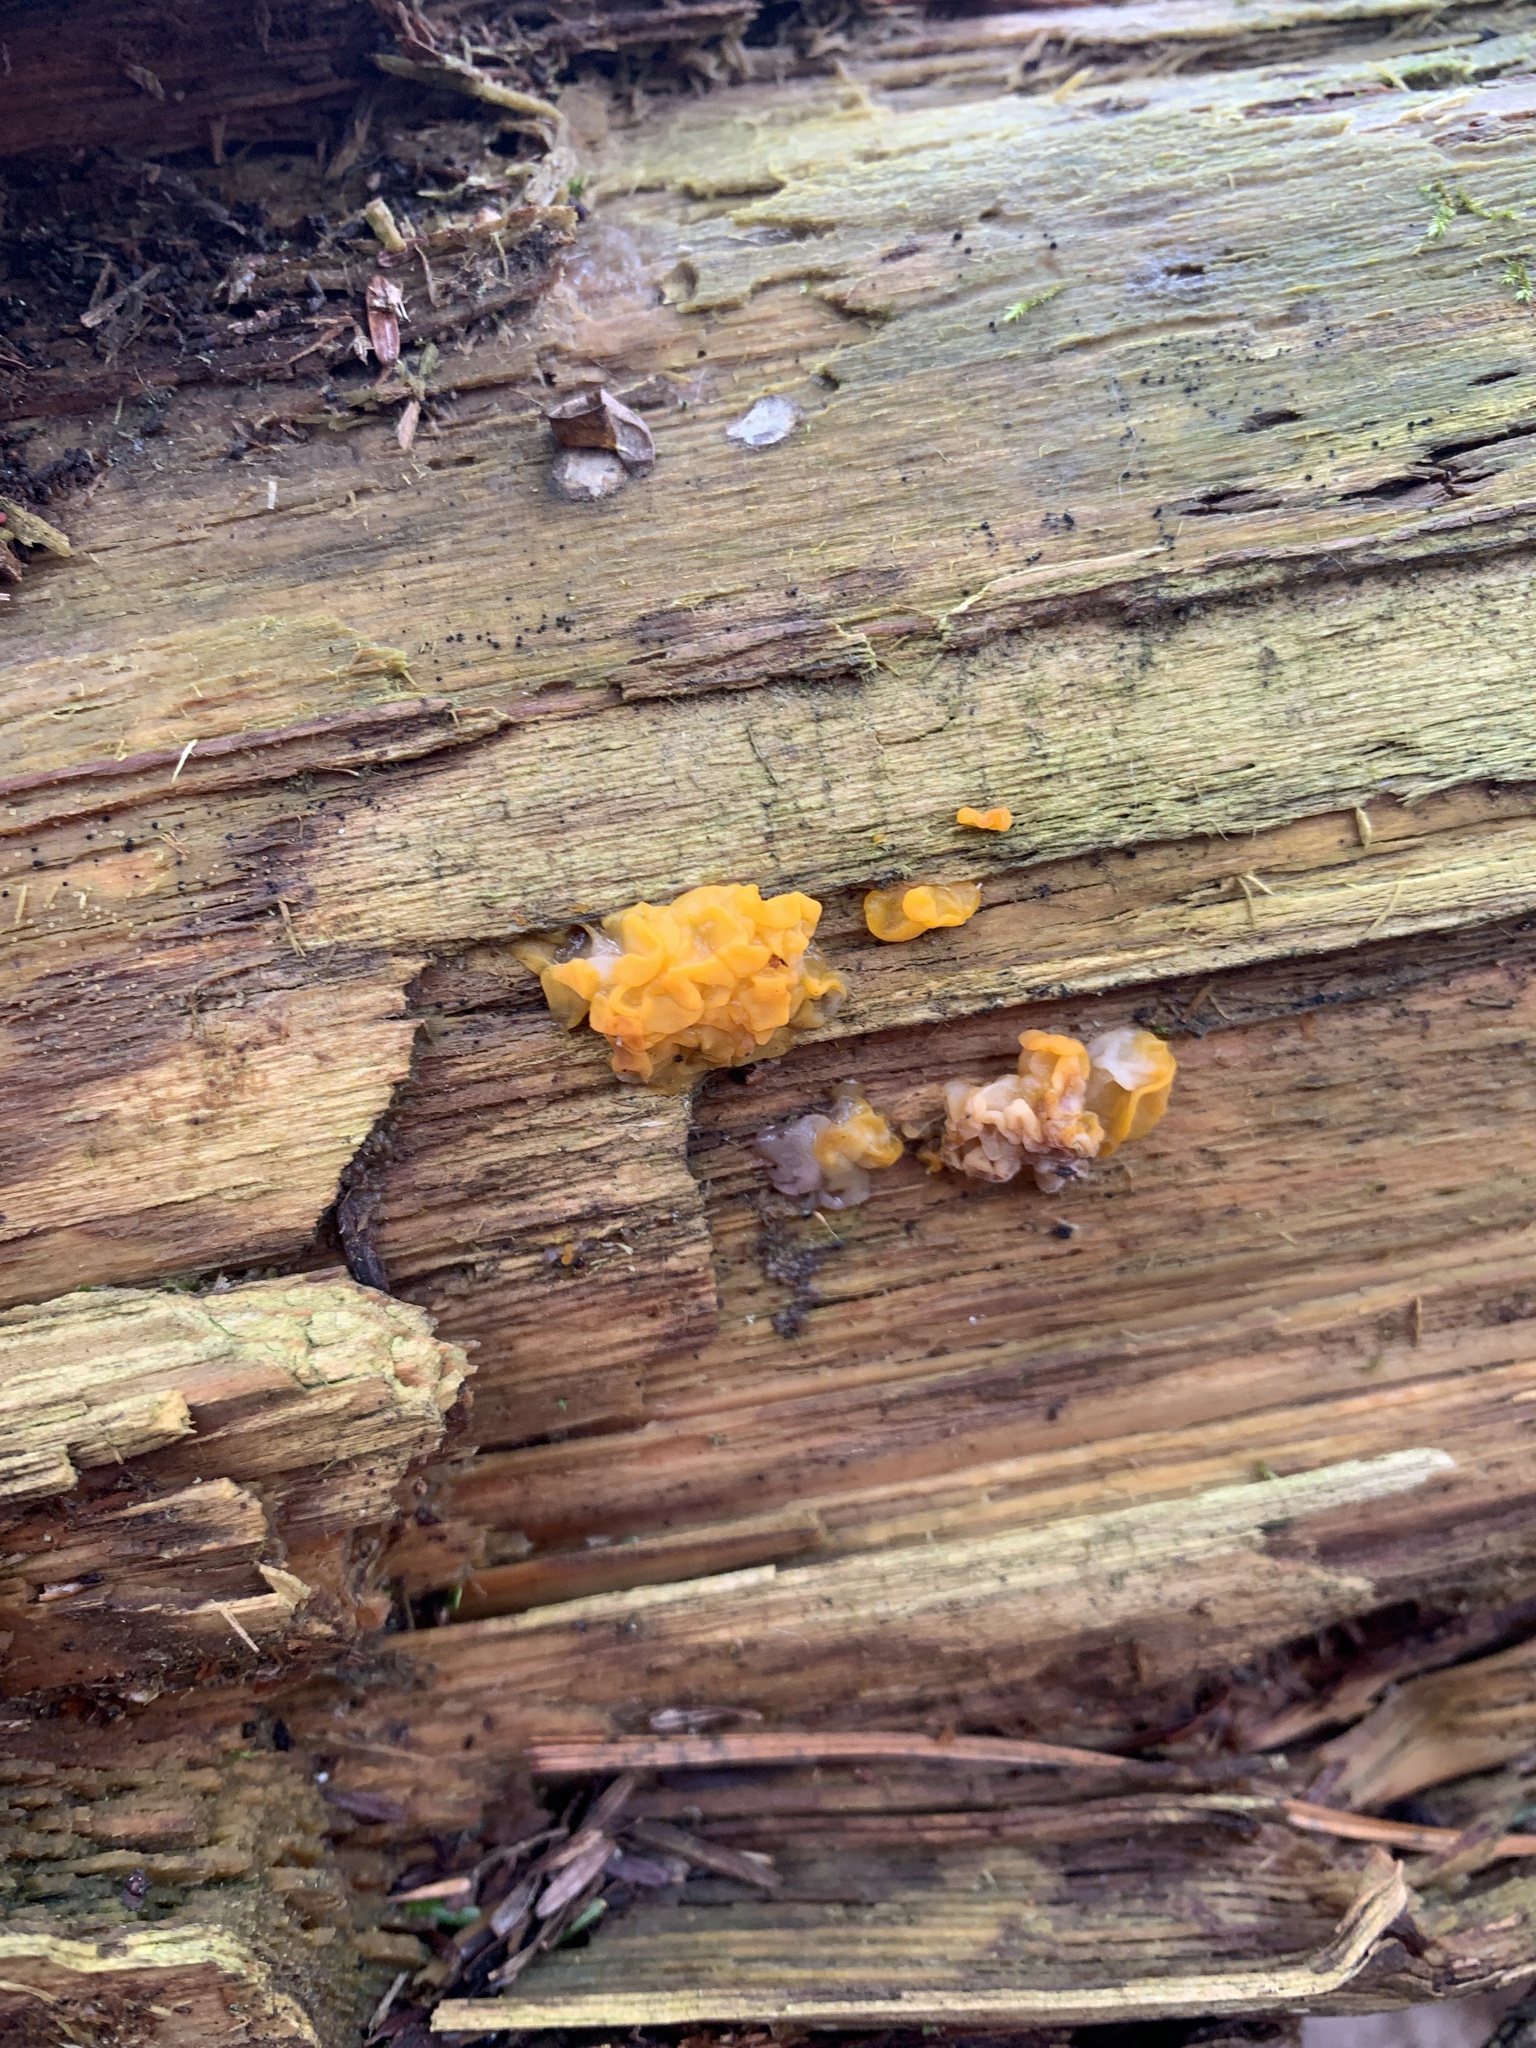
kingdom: Fungi
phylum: Basidiomycota
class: Dacrymycetes
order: Dacrymycetales
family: Dacrymycetaceae
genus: Dacrymyces
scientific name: Dacrymyces chrysospermus
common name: Orange jelly spot
